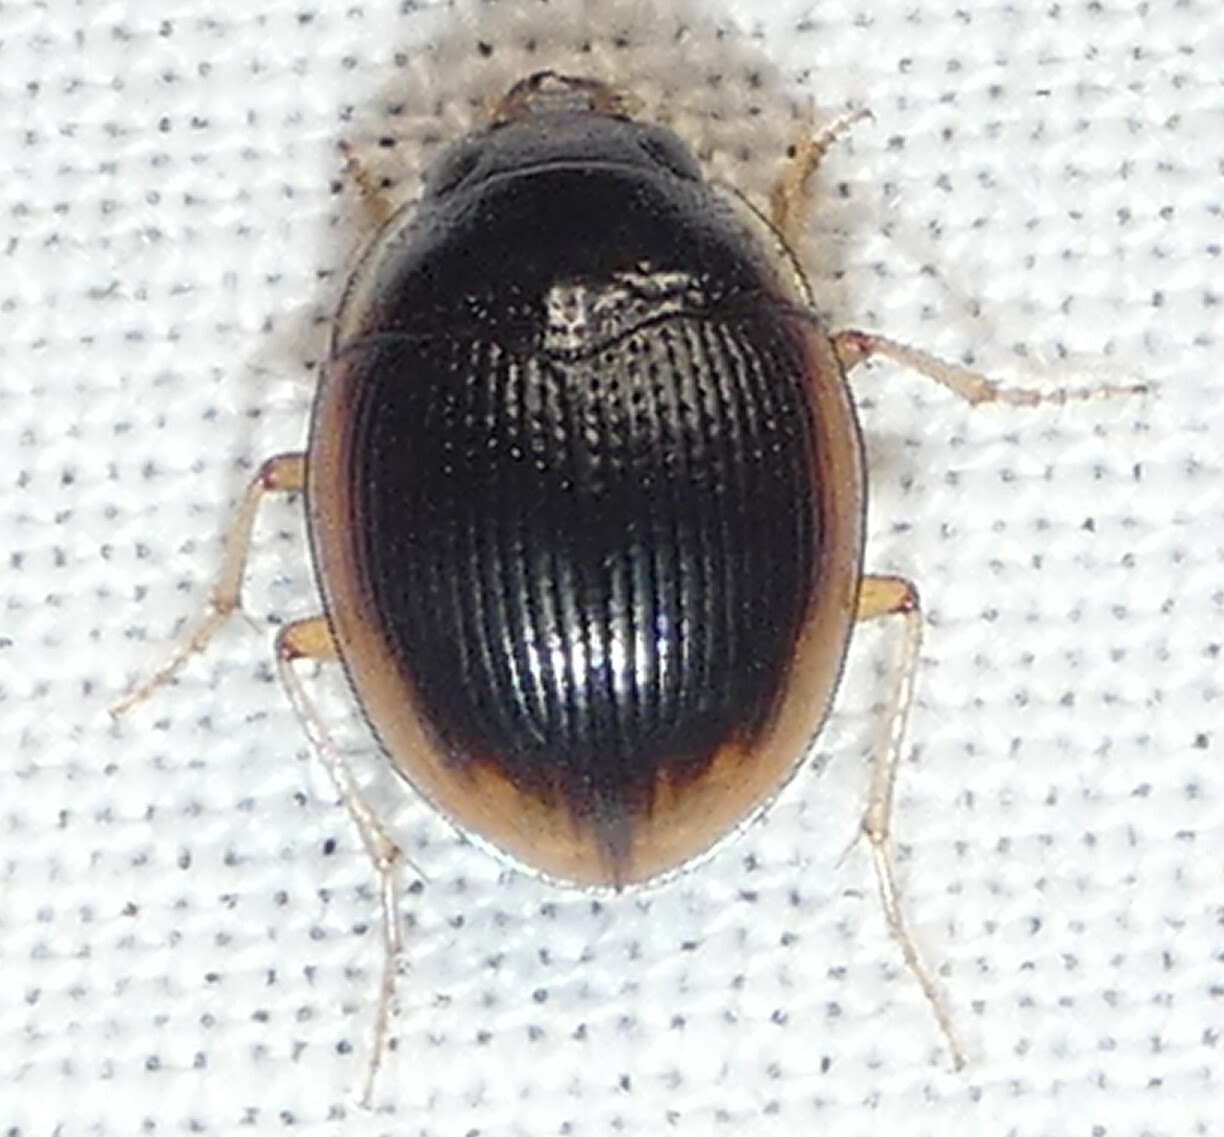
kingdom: Animalia
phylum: Arthropoda
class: Insecta
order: Coleoptera
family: Carabidae
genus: Omophron
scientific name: Omophron labiatum
